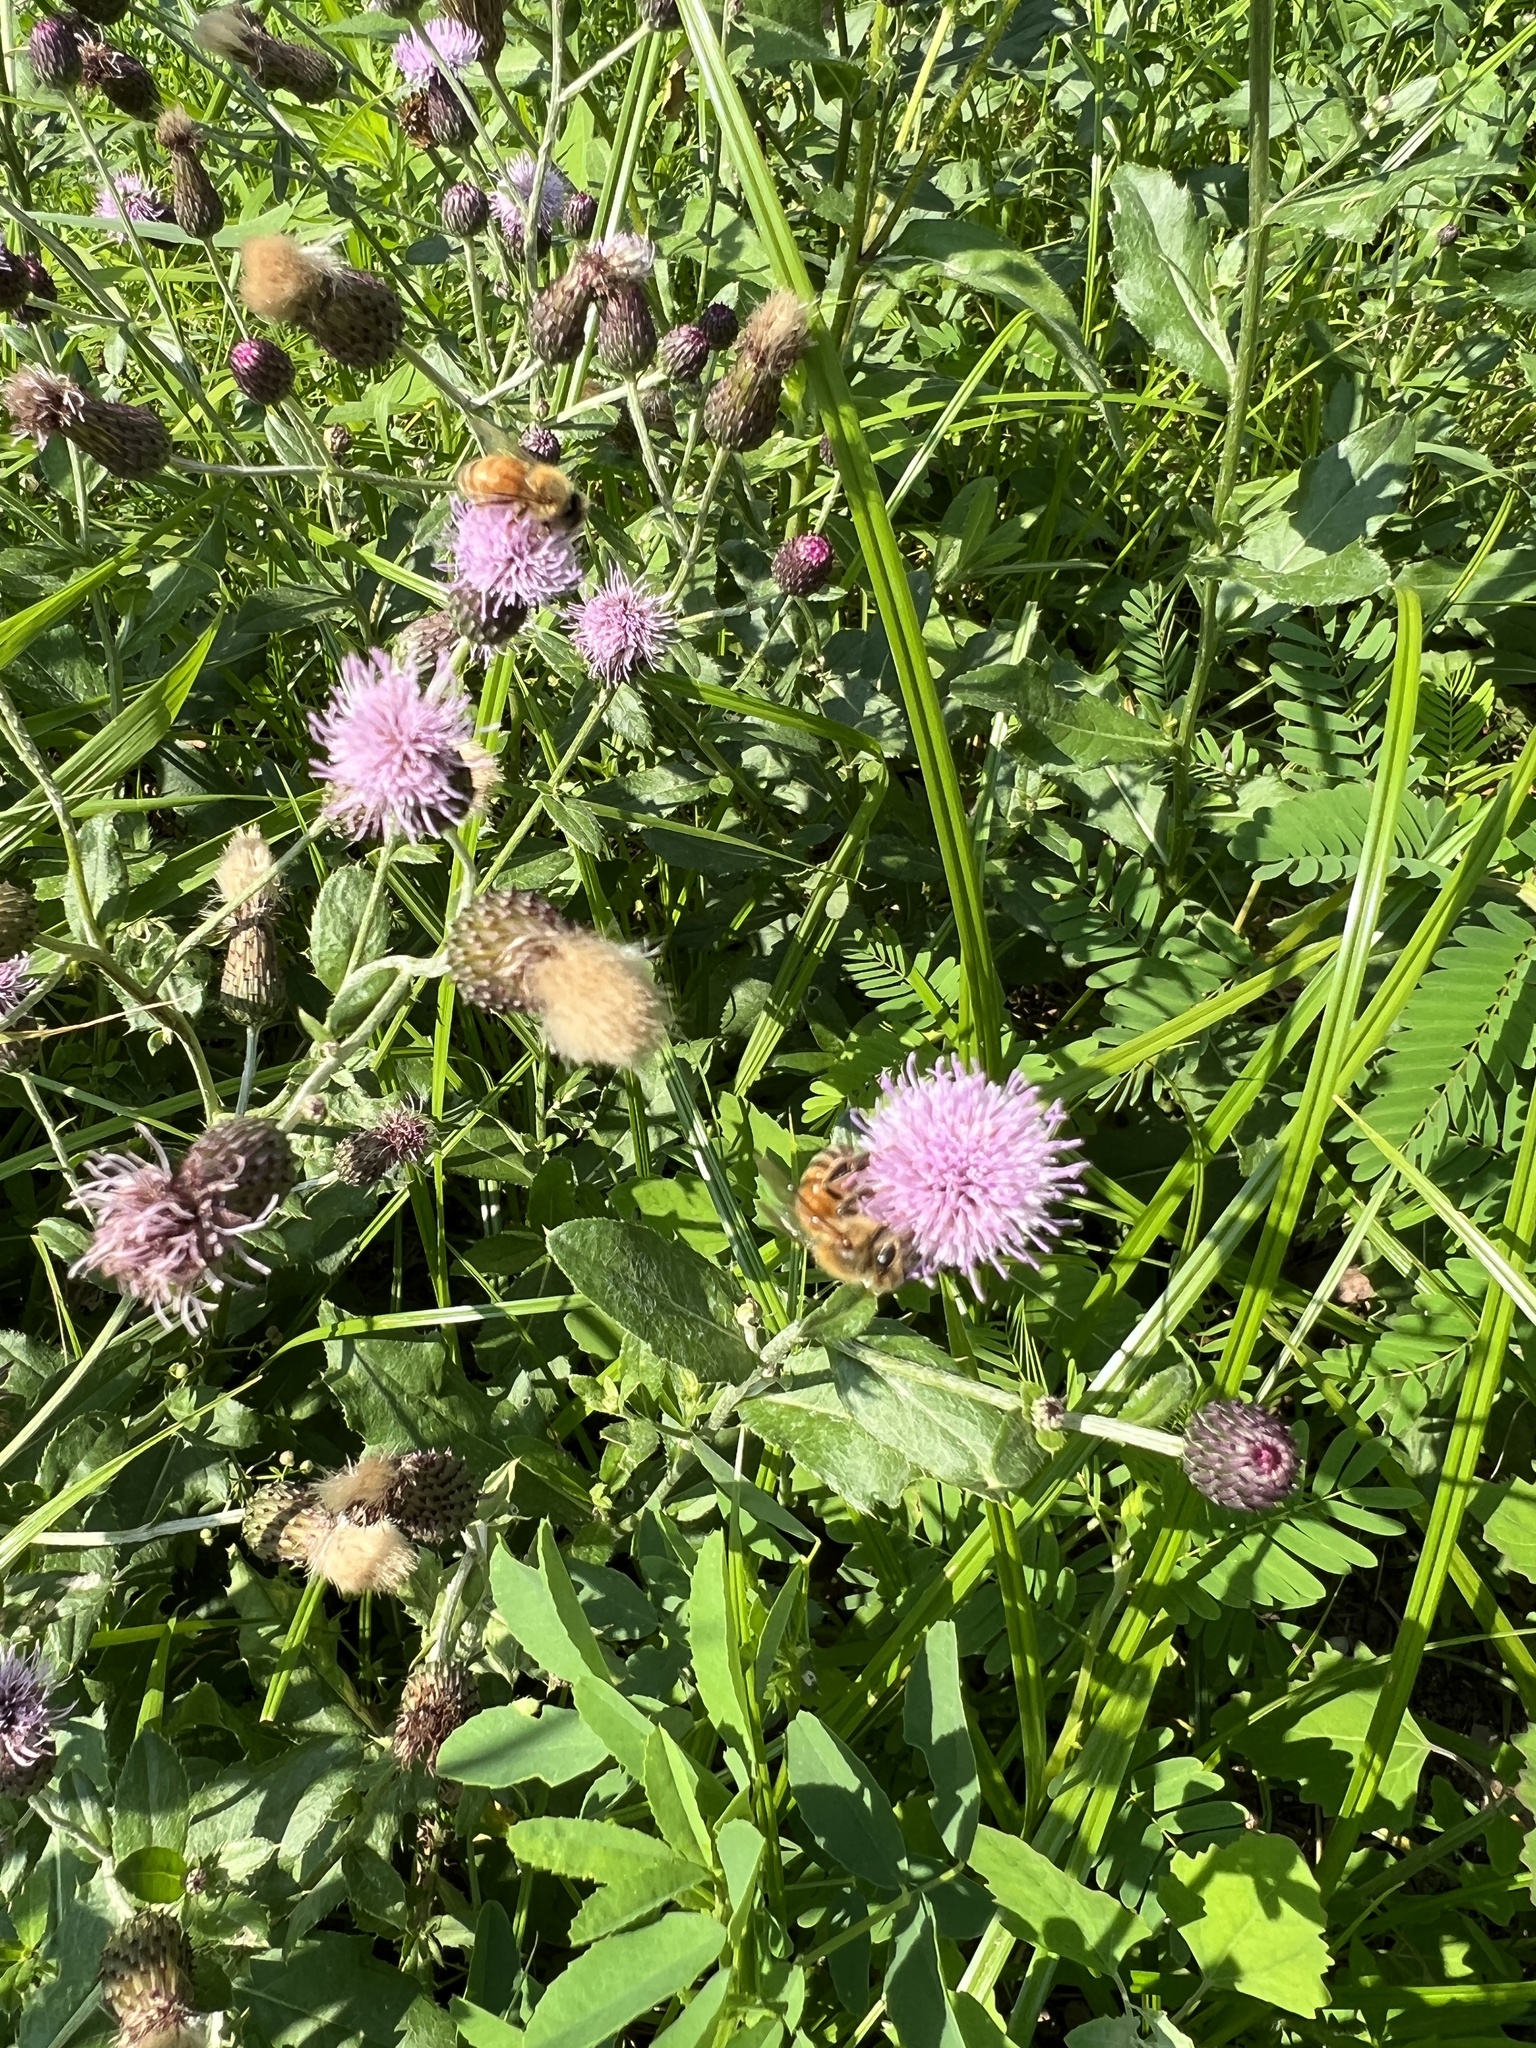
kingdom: Plantae
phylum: Tracheophyta
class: Magnoliopsida
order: Asterales
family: Asteraceae
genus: Cirsium
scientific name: Cirsium arvense
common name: Creeping thistle
